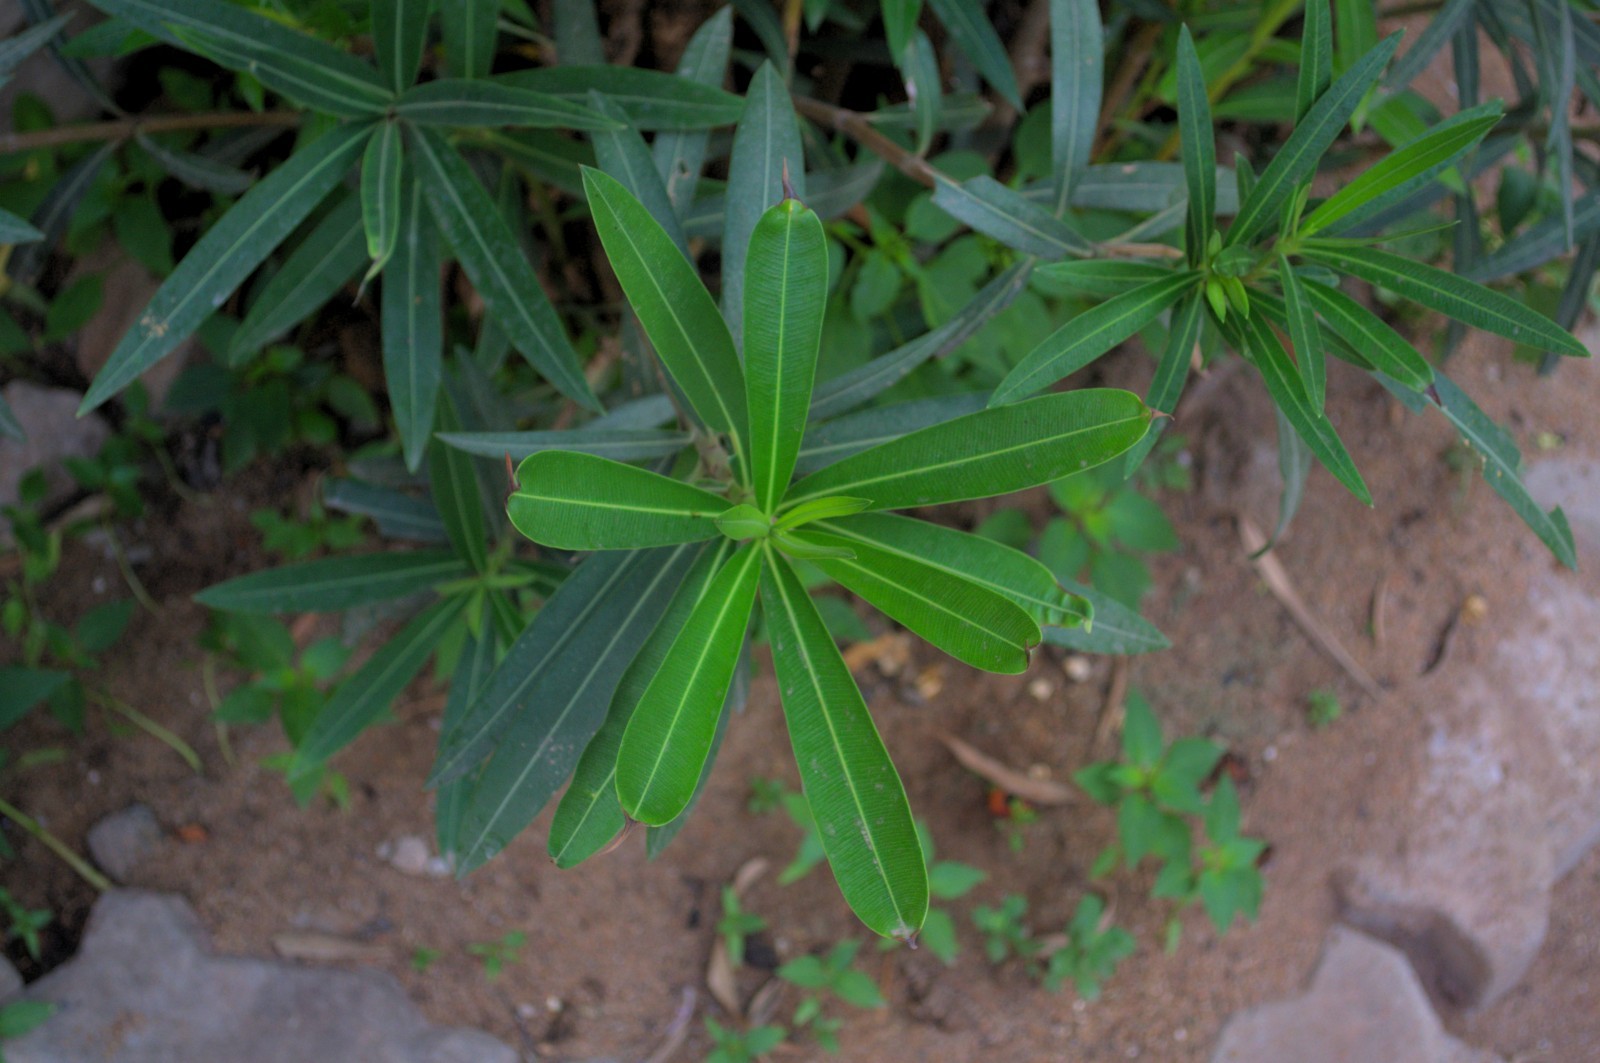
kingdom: Plantae
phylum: Tracheophyta
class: Magnoliopsida
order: Gentianales
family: Apocynaceae
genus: Nerium
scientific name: Nerium oleander
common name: Oleander
